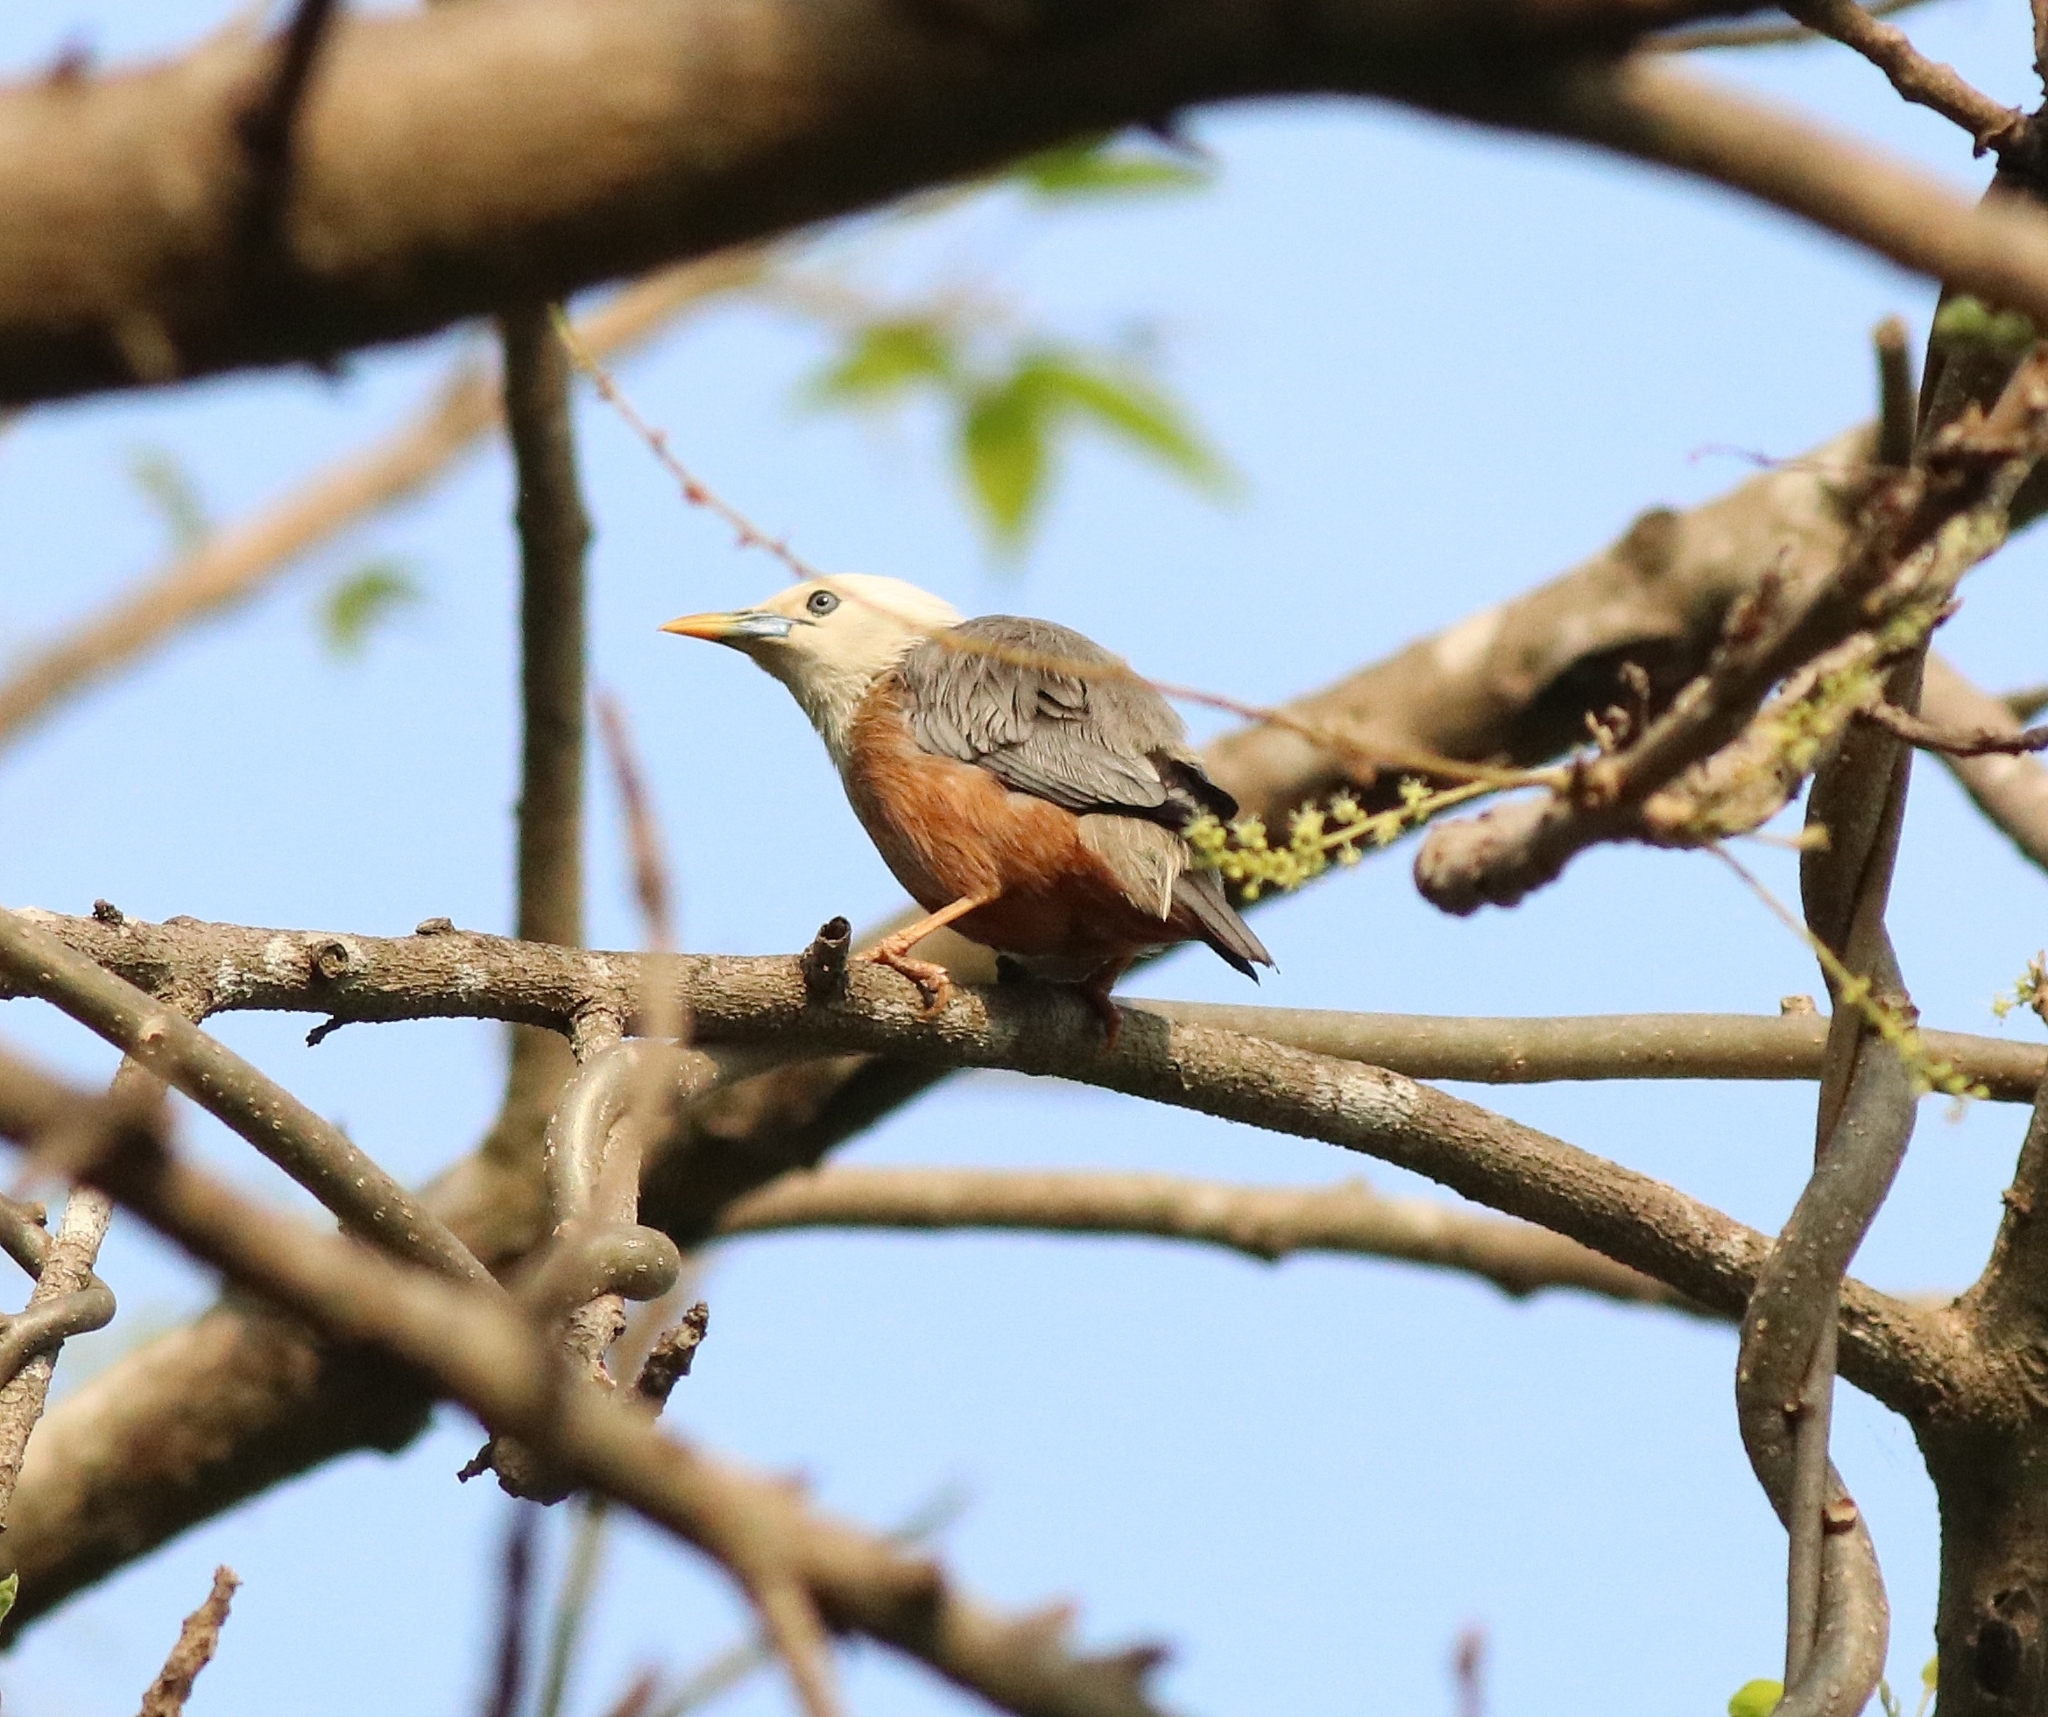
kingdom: Animalia
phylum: Chordata
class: Aves
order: Passeriformes
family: Sturnidae
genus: Sturnia
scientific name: Sturnia blythii
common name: Malabar starling
